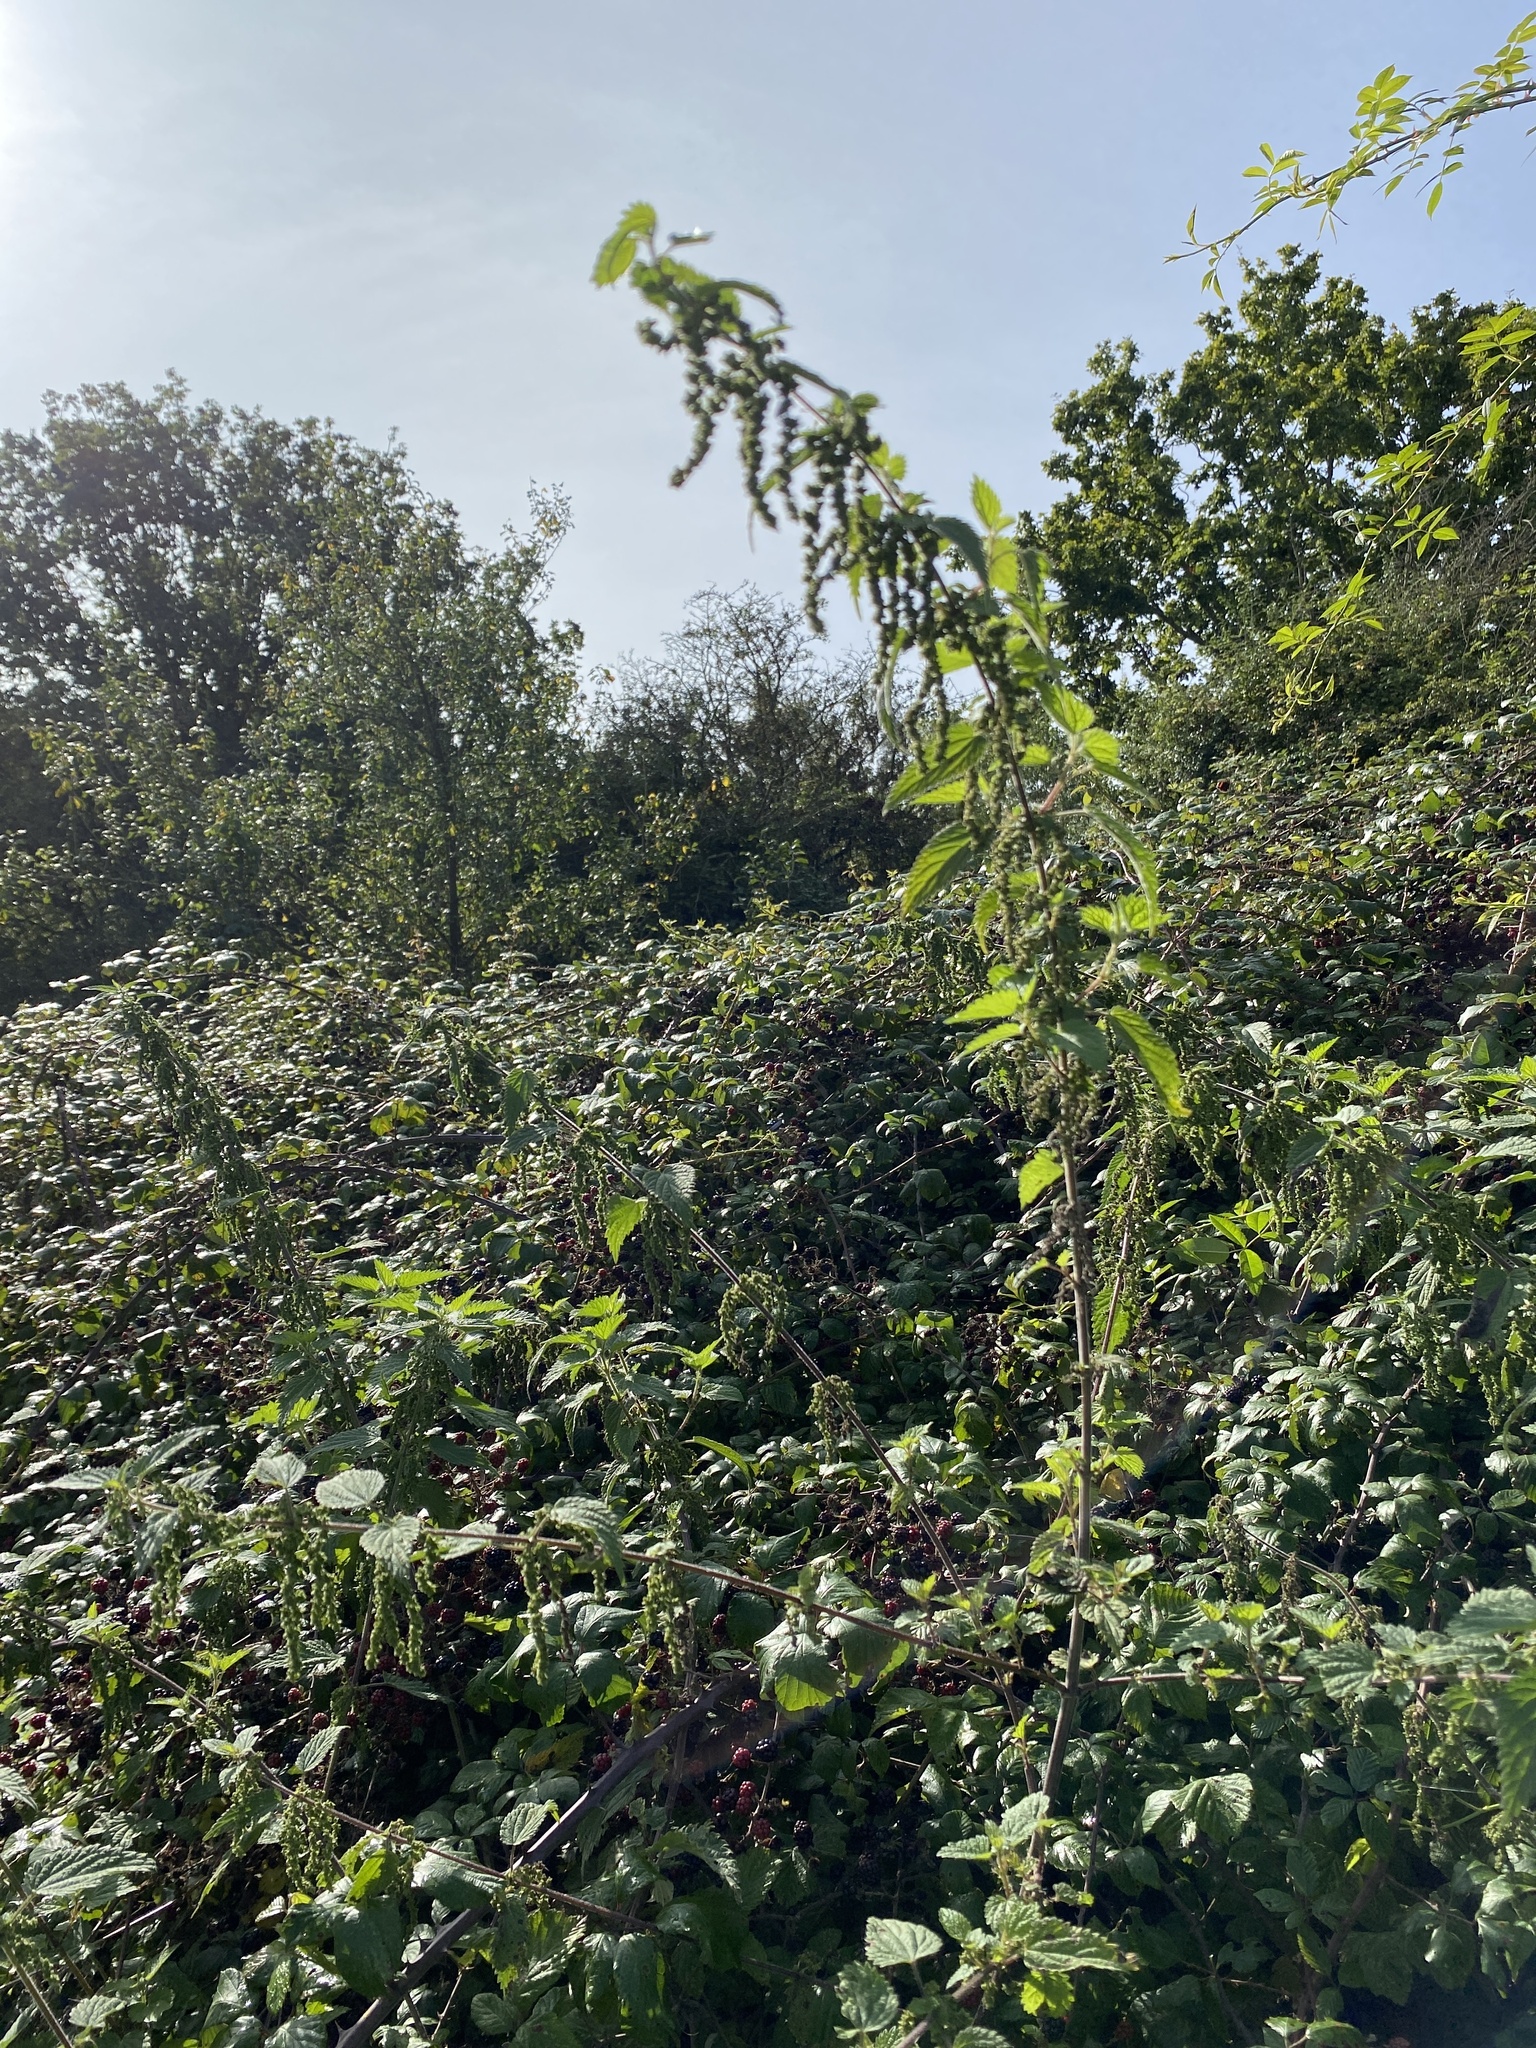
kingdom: Plantae
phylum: Tracheophyta
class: Magnoliopsida
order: Rosales
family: Urticaceae
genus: Urtica
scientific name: Urtica dioica
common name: Common nettle
